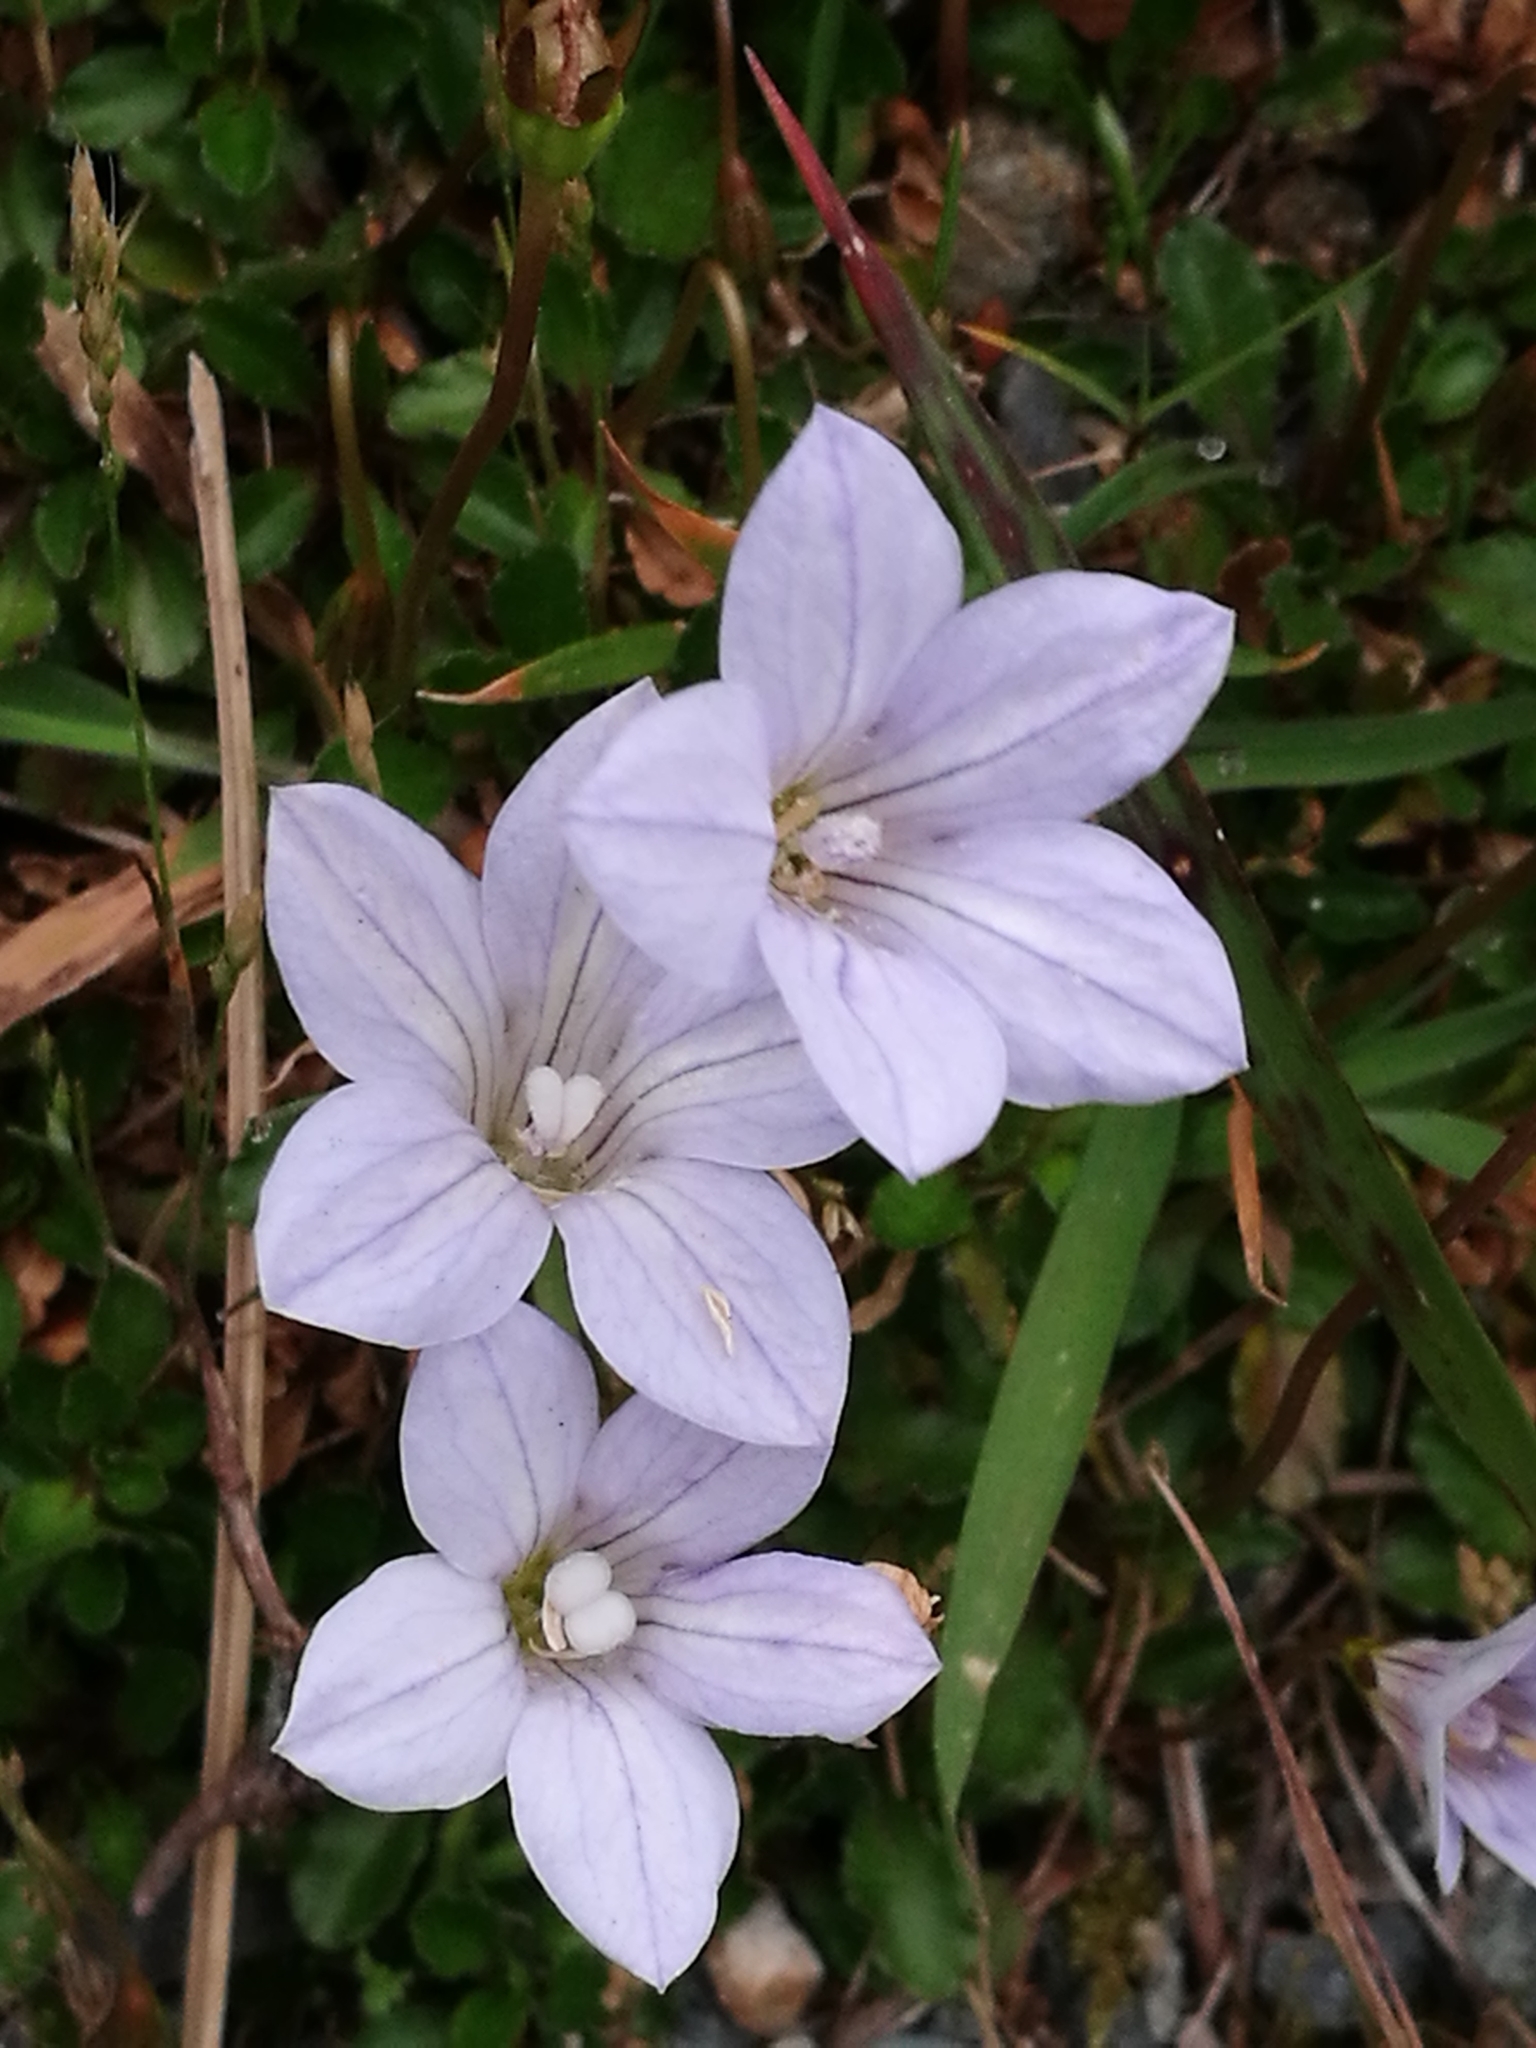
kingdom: Plantae
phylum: Tracheophyta
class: Magnoliopsida
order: Asterales
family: Campanulaceae
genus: Wahlenbergia
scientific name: Wahlenbergia albomarginata
